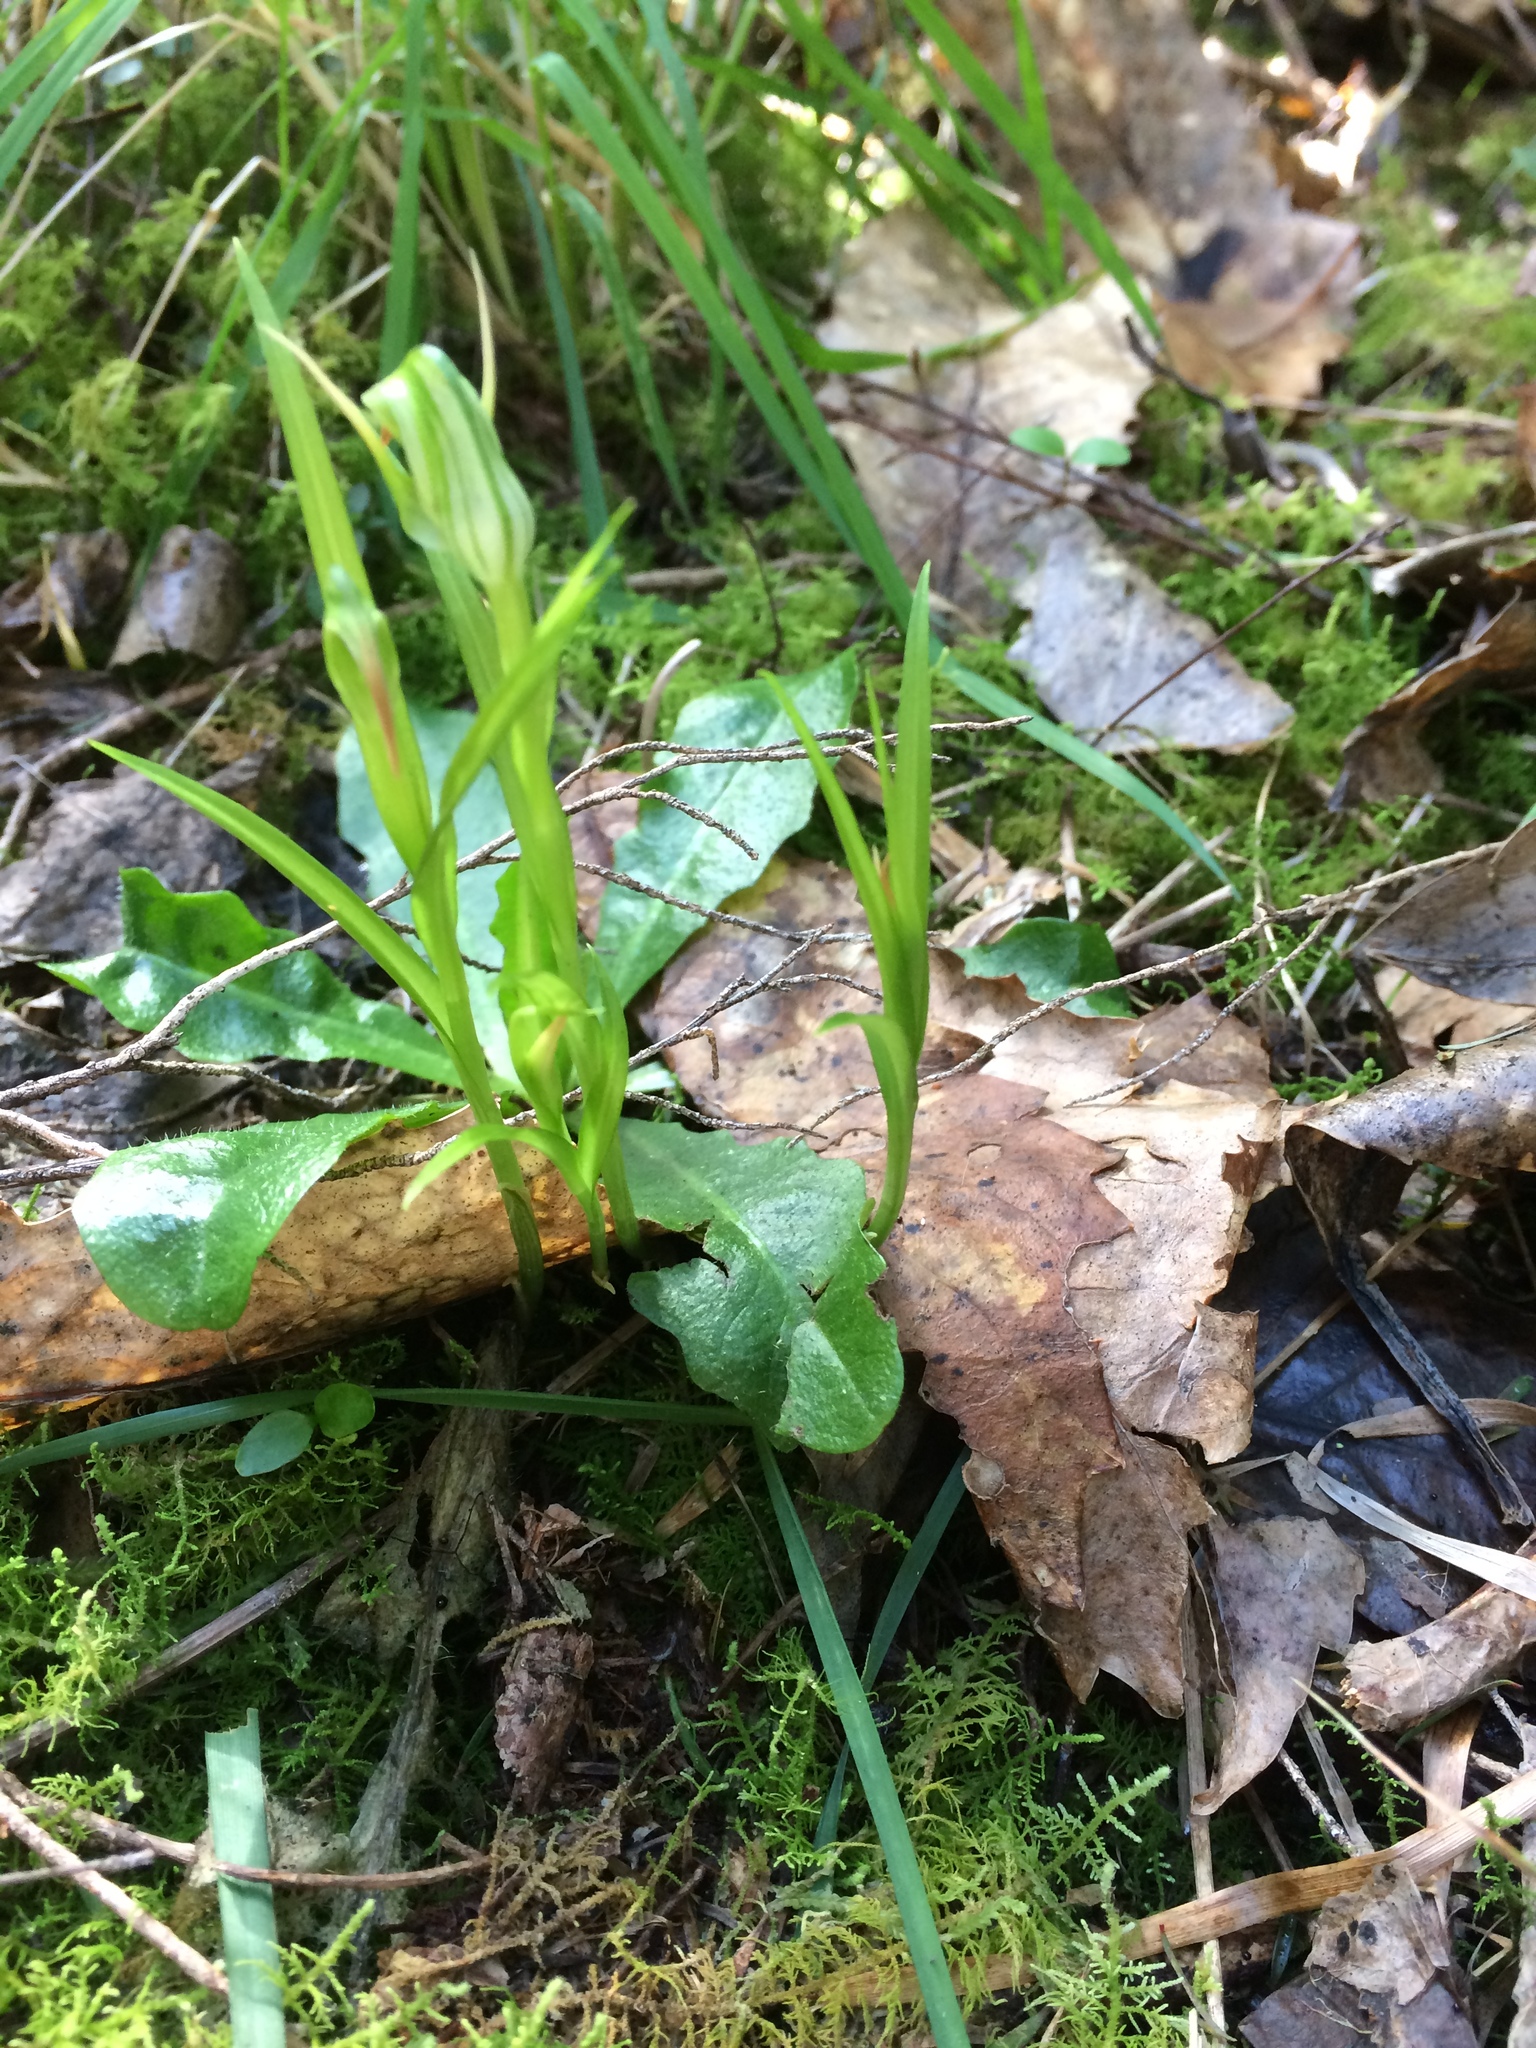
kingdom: Plantae
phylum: Tracheophyta
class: Liliopsida
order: Asparagales
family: Orchidaceae
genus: Pterostylis
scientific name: Pterostylis
